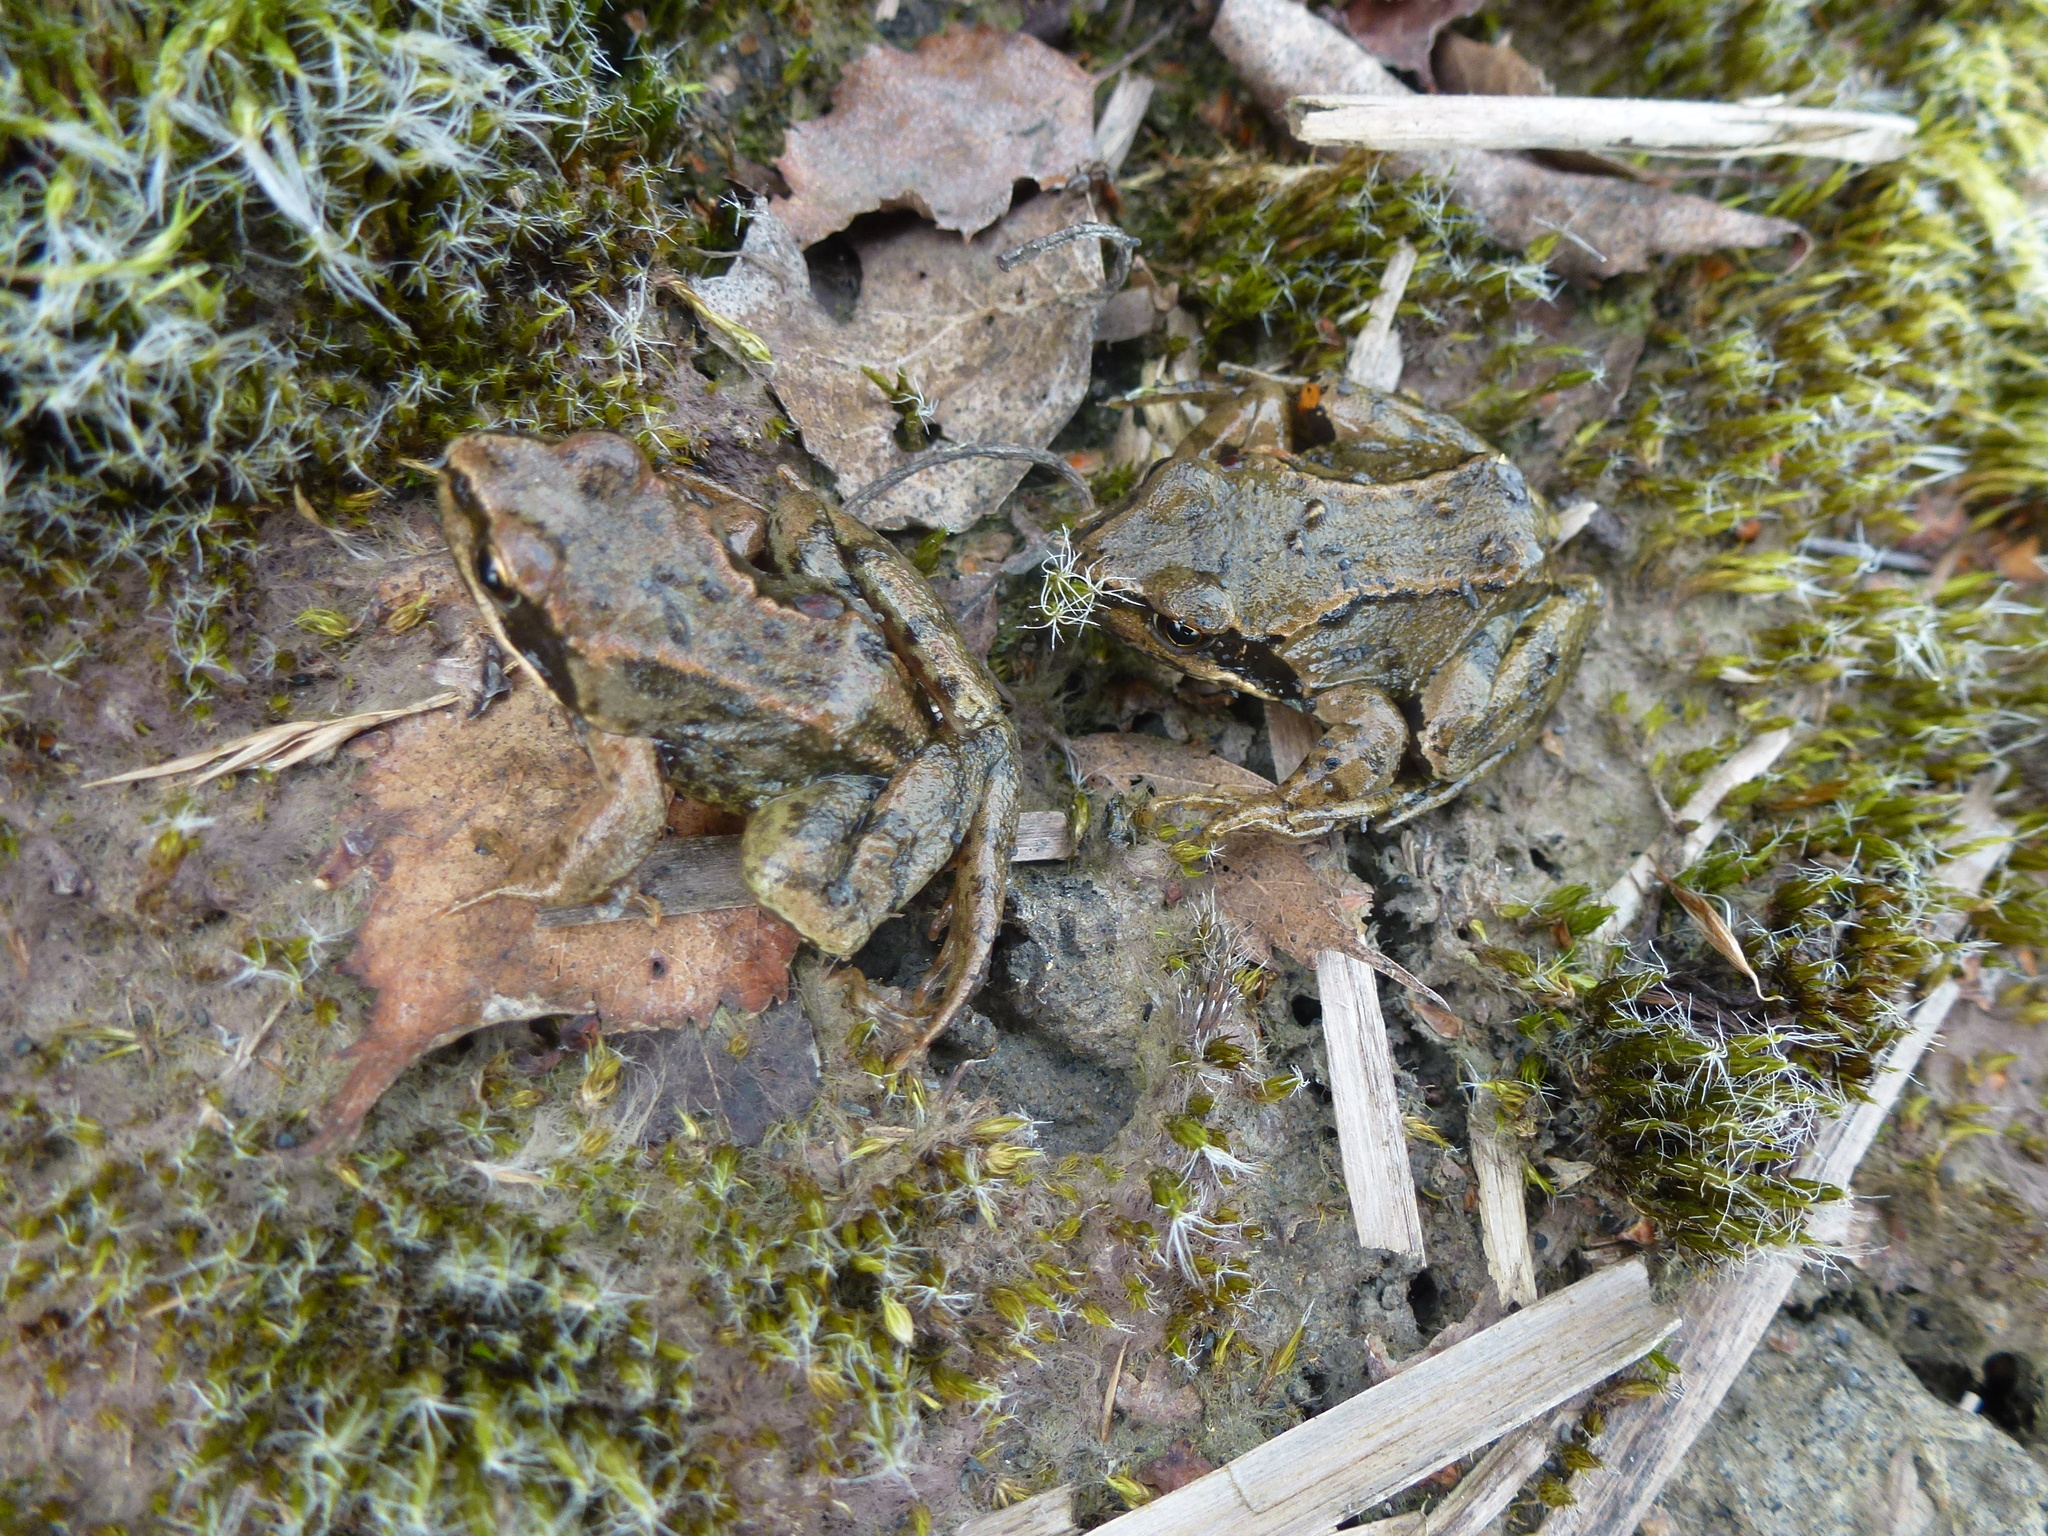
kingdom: Animalia
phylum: Chordata
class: Amphibia
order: Anura
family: Ranidae
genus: Rana
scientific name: Rana temporaria
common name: Common frog
